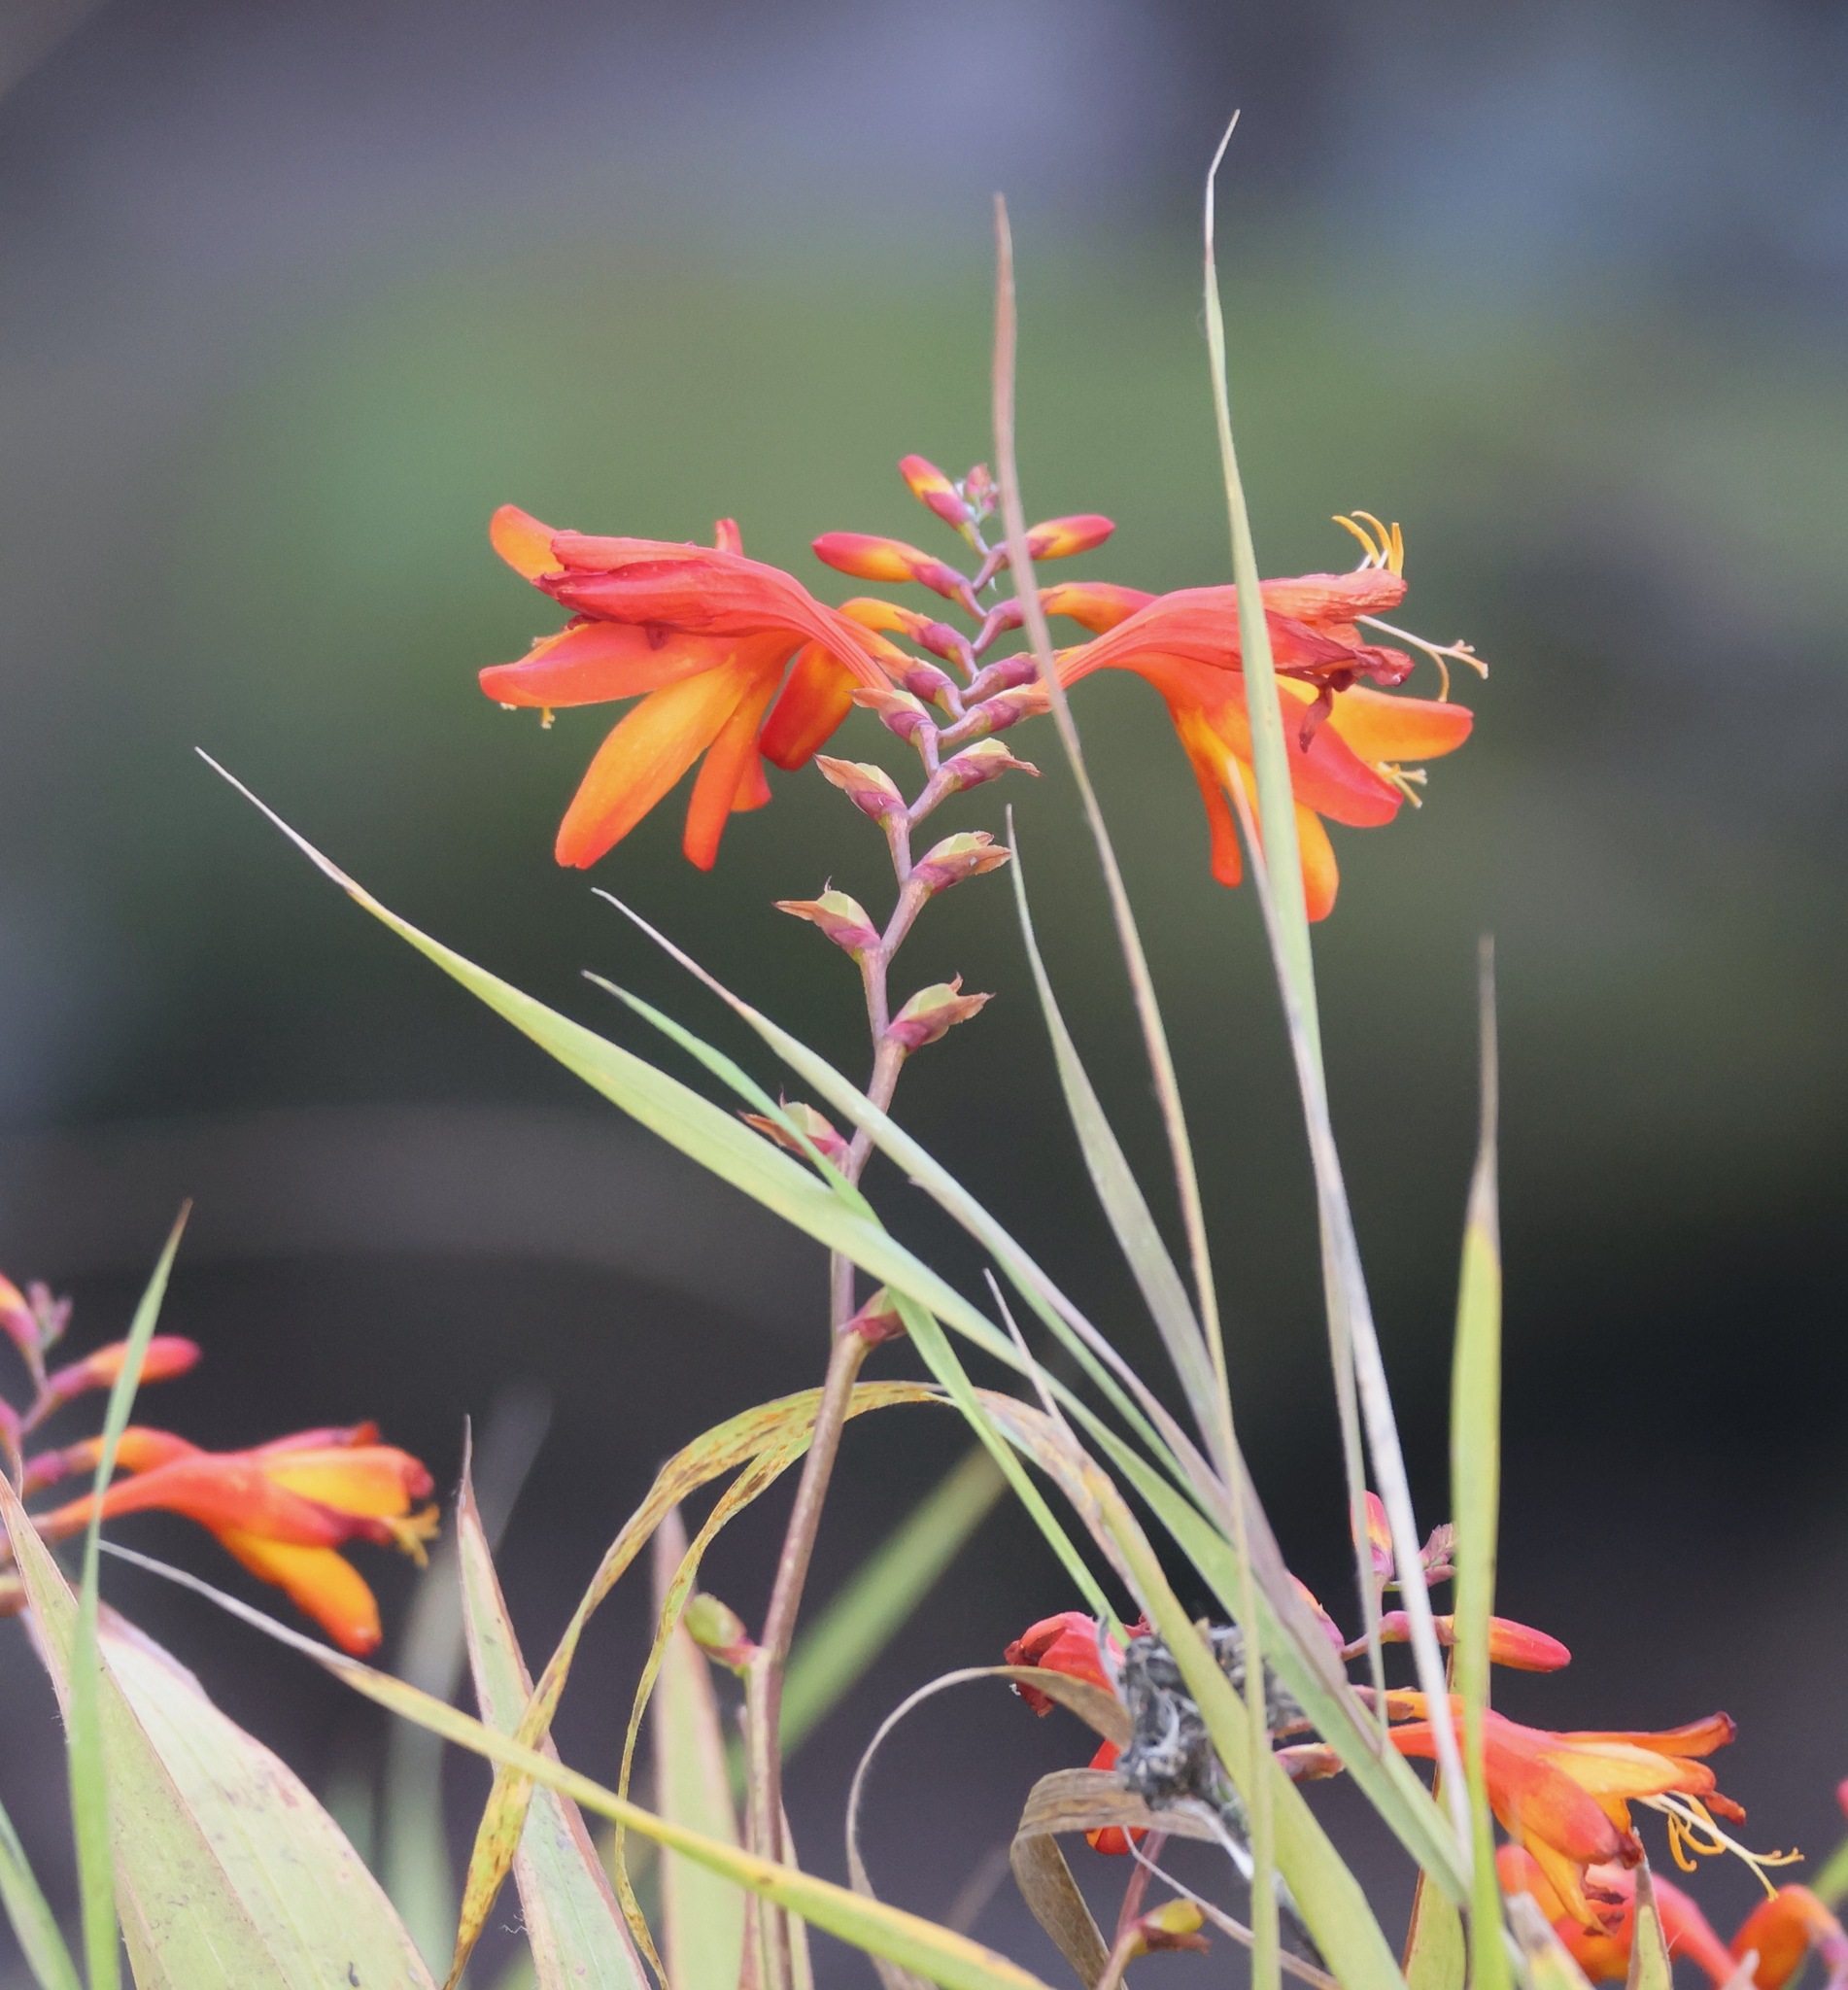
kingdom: Plantae
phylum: Tracheophyta
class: Liliopsida
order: Asparagales
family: Iridaceae
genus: Crocosmia
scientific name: Crocosmia crocosmiiflora
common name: Montbretia
